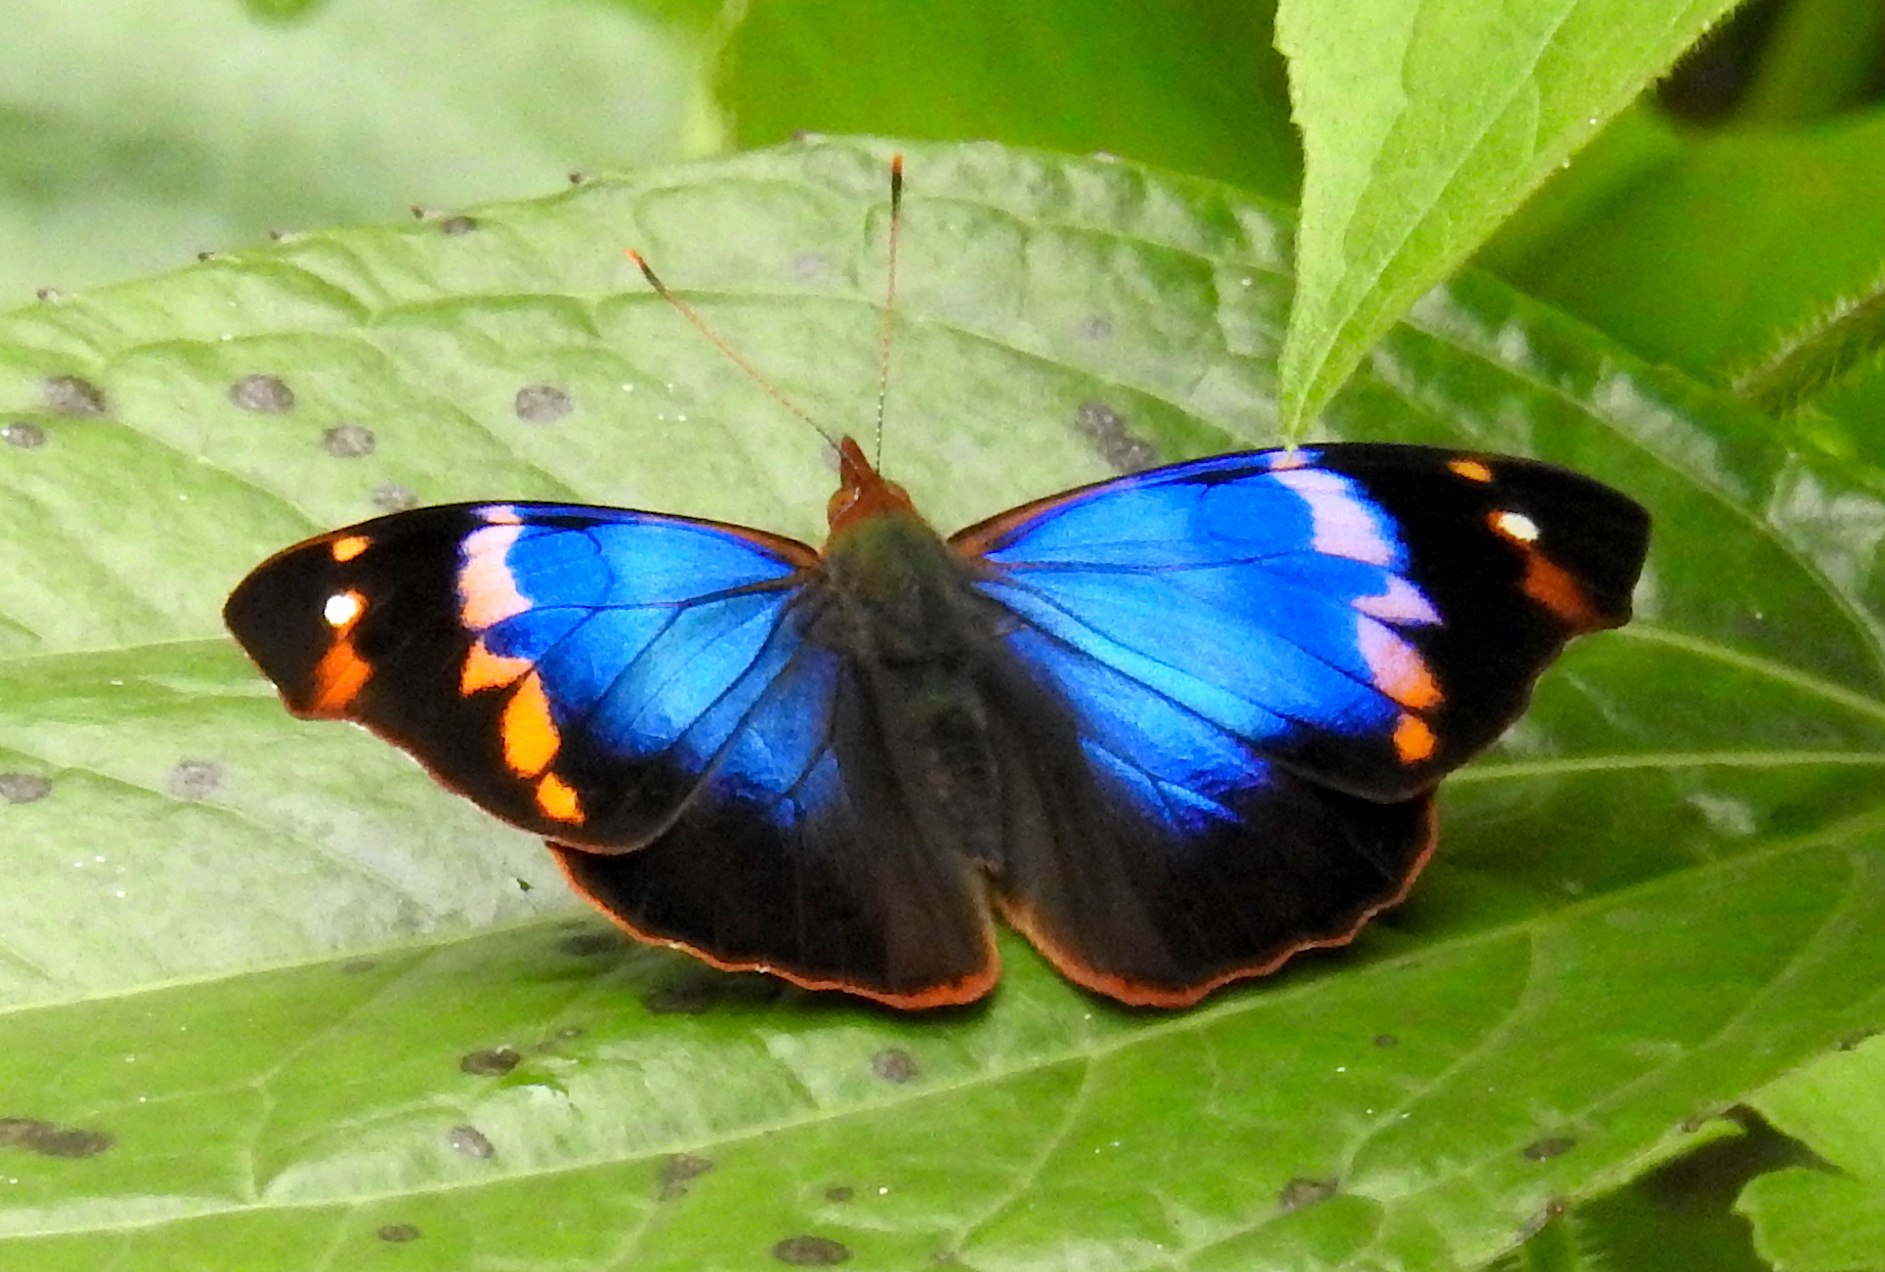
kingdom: Animalia
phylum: Arthropoda
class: Insecta
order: Lepidoptera
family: Nymphalidae
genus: Epiphile
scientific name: Epiphile epimenes
